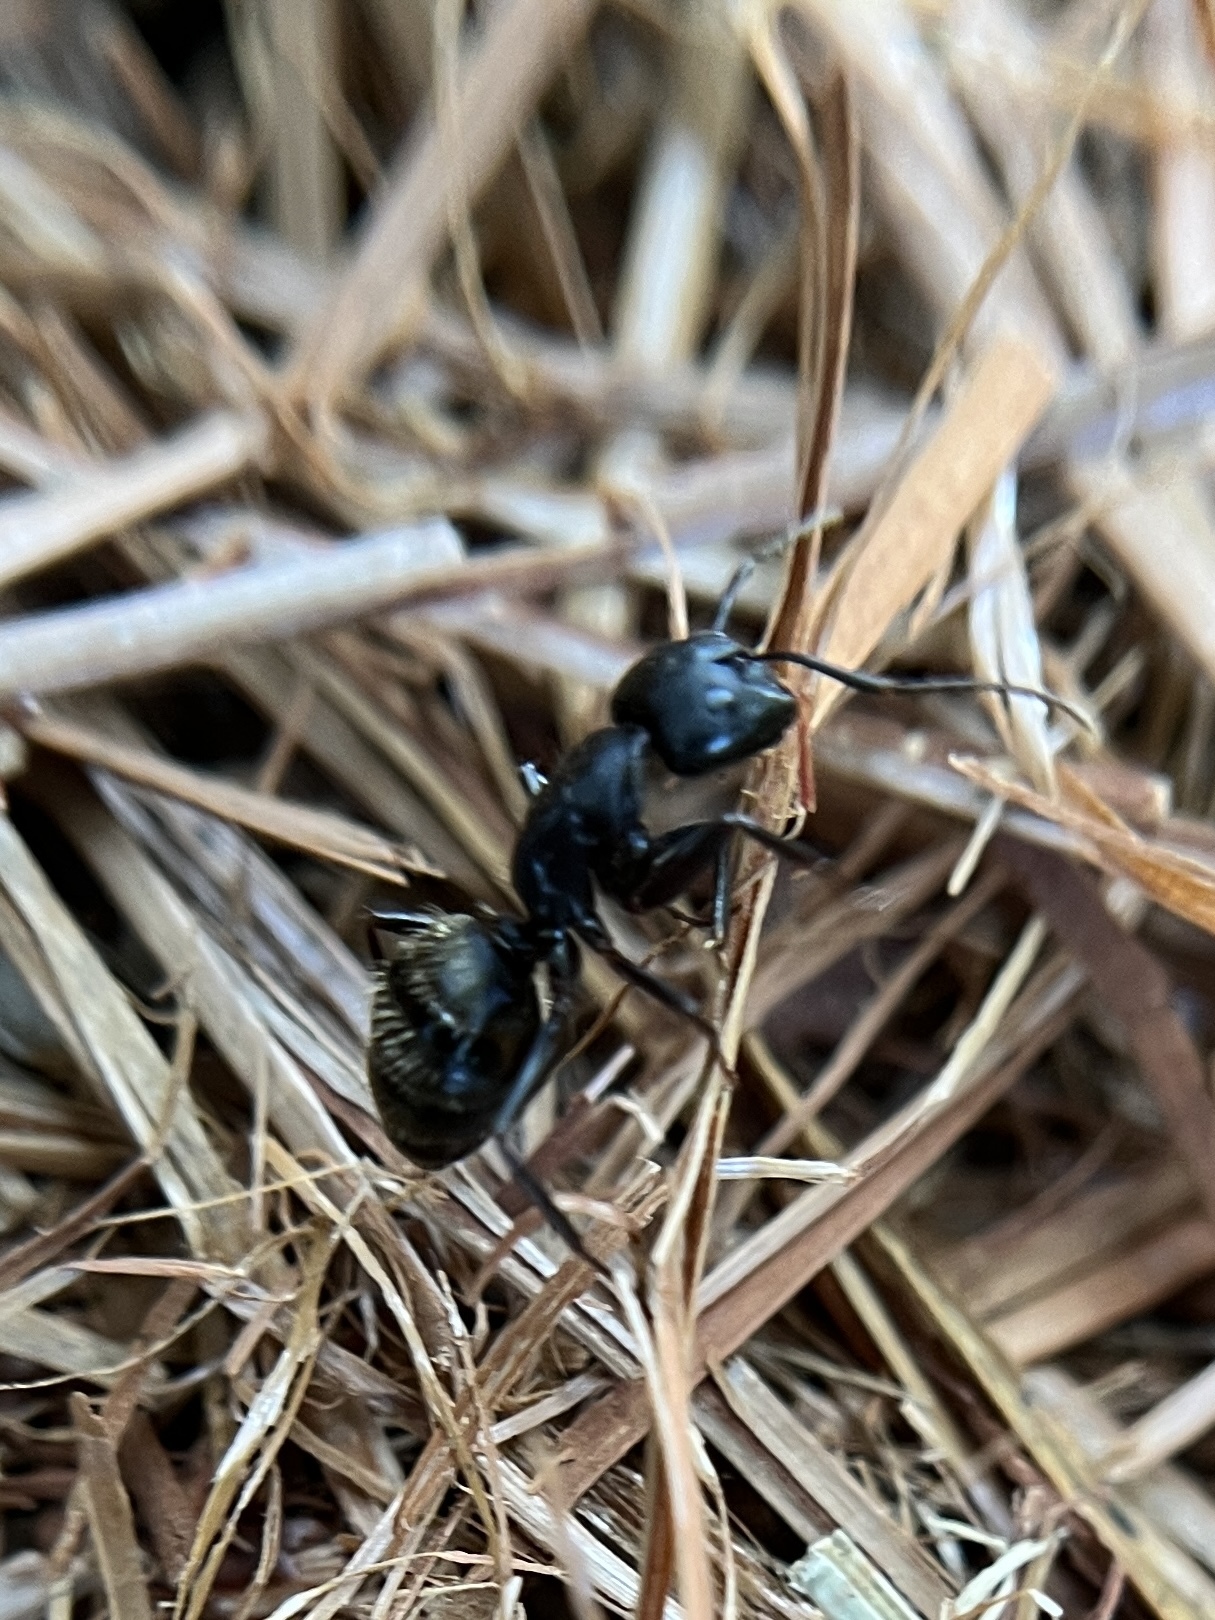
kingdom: Animalia
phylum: Arthropoda
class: Insecta
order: Hymenoptera
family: Formicidae
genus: Camponotus
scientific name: Camponotus pennsylvanicus
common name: Black carpenter ant
